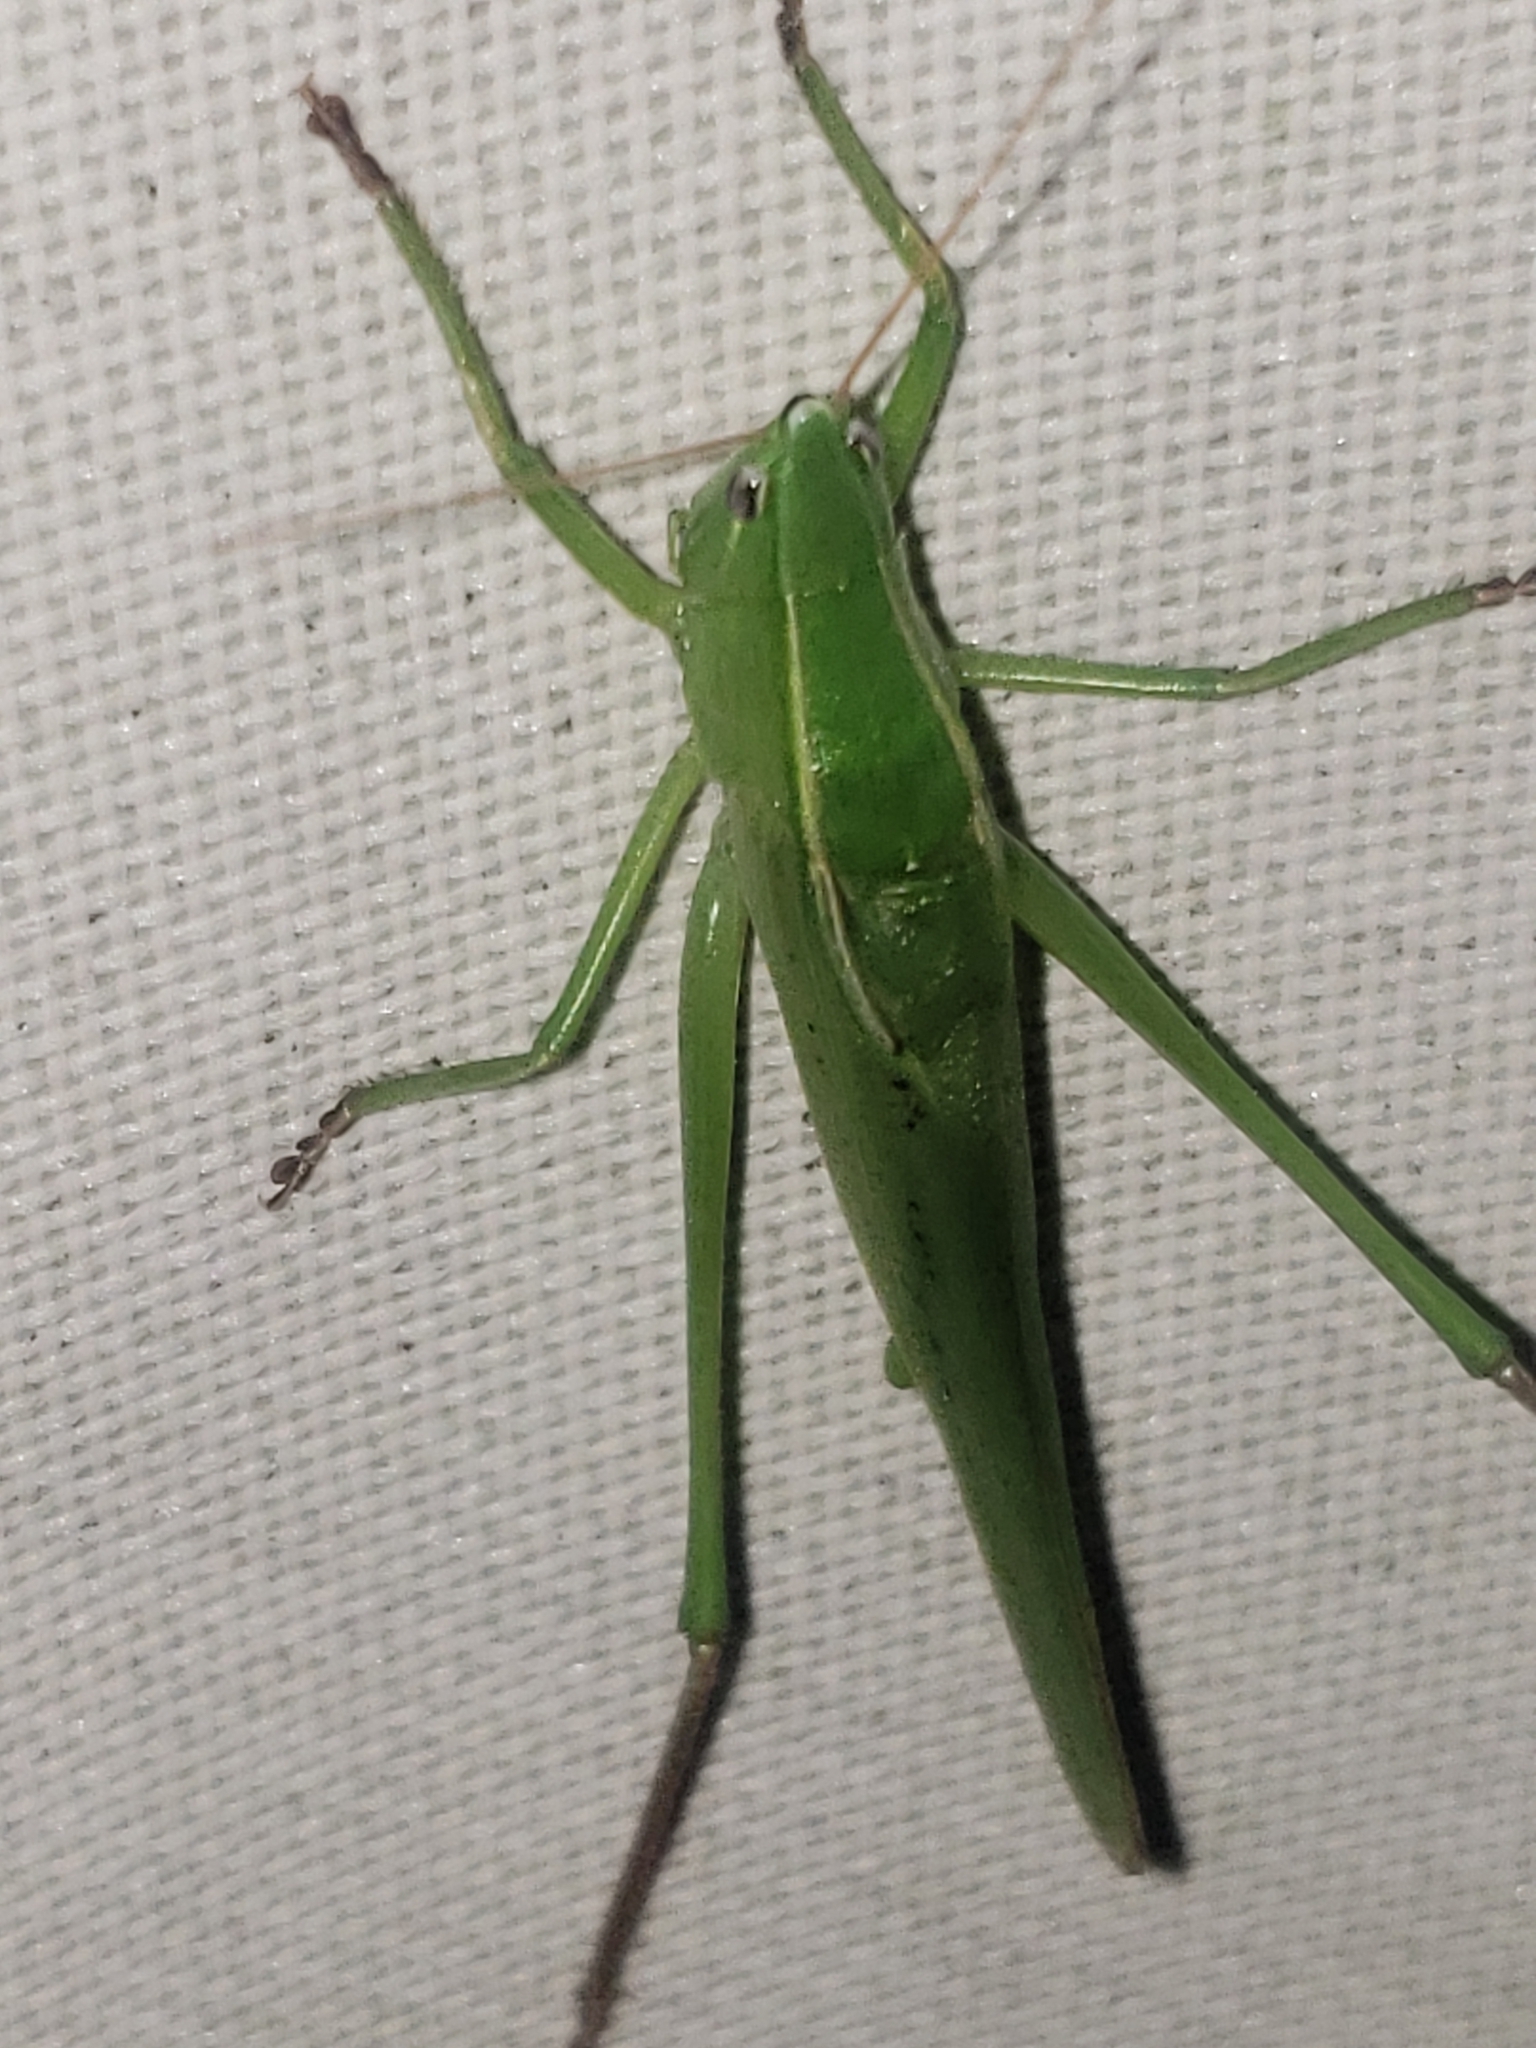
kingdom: Animalia
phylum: Arthropoda
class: Insecta
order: Orthoptera
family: Tettigoniidae
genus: Neoconocephalus
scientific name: Neoconocephalus retusus
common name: Round-tipped conehead
